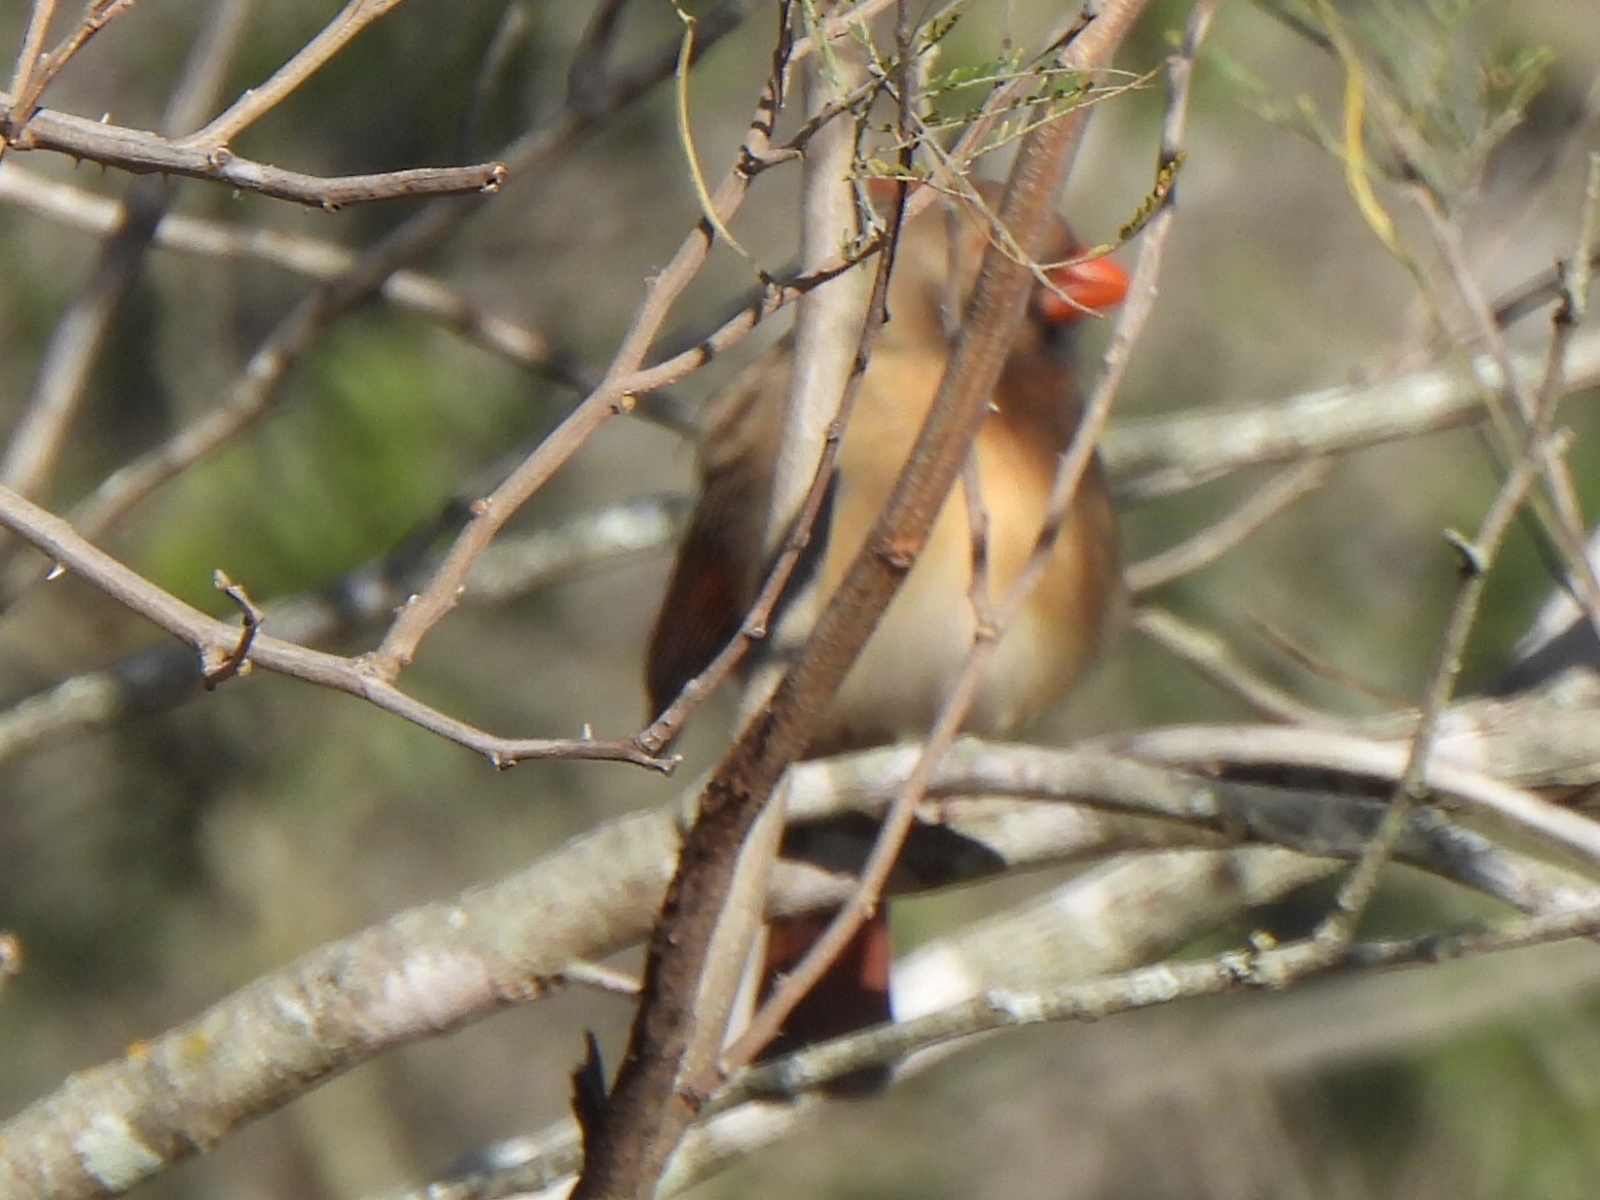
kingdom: Animalia
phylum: Chordata
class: Aves
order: Passeriformes
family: Cardinalidae
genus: Cardinalis
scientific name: Cardinalis cardinalis
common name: Northern cardinal
